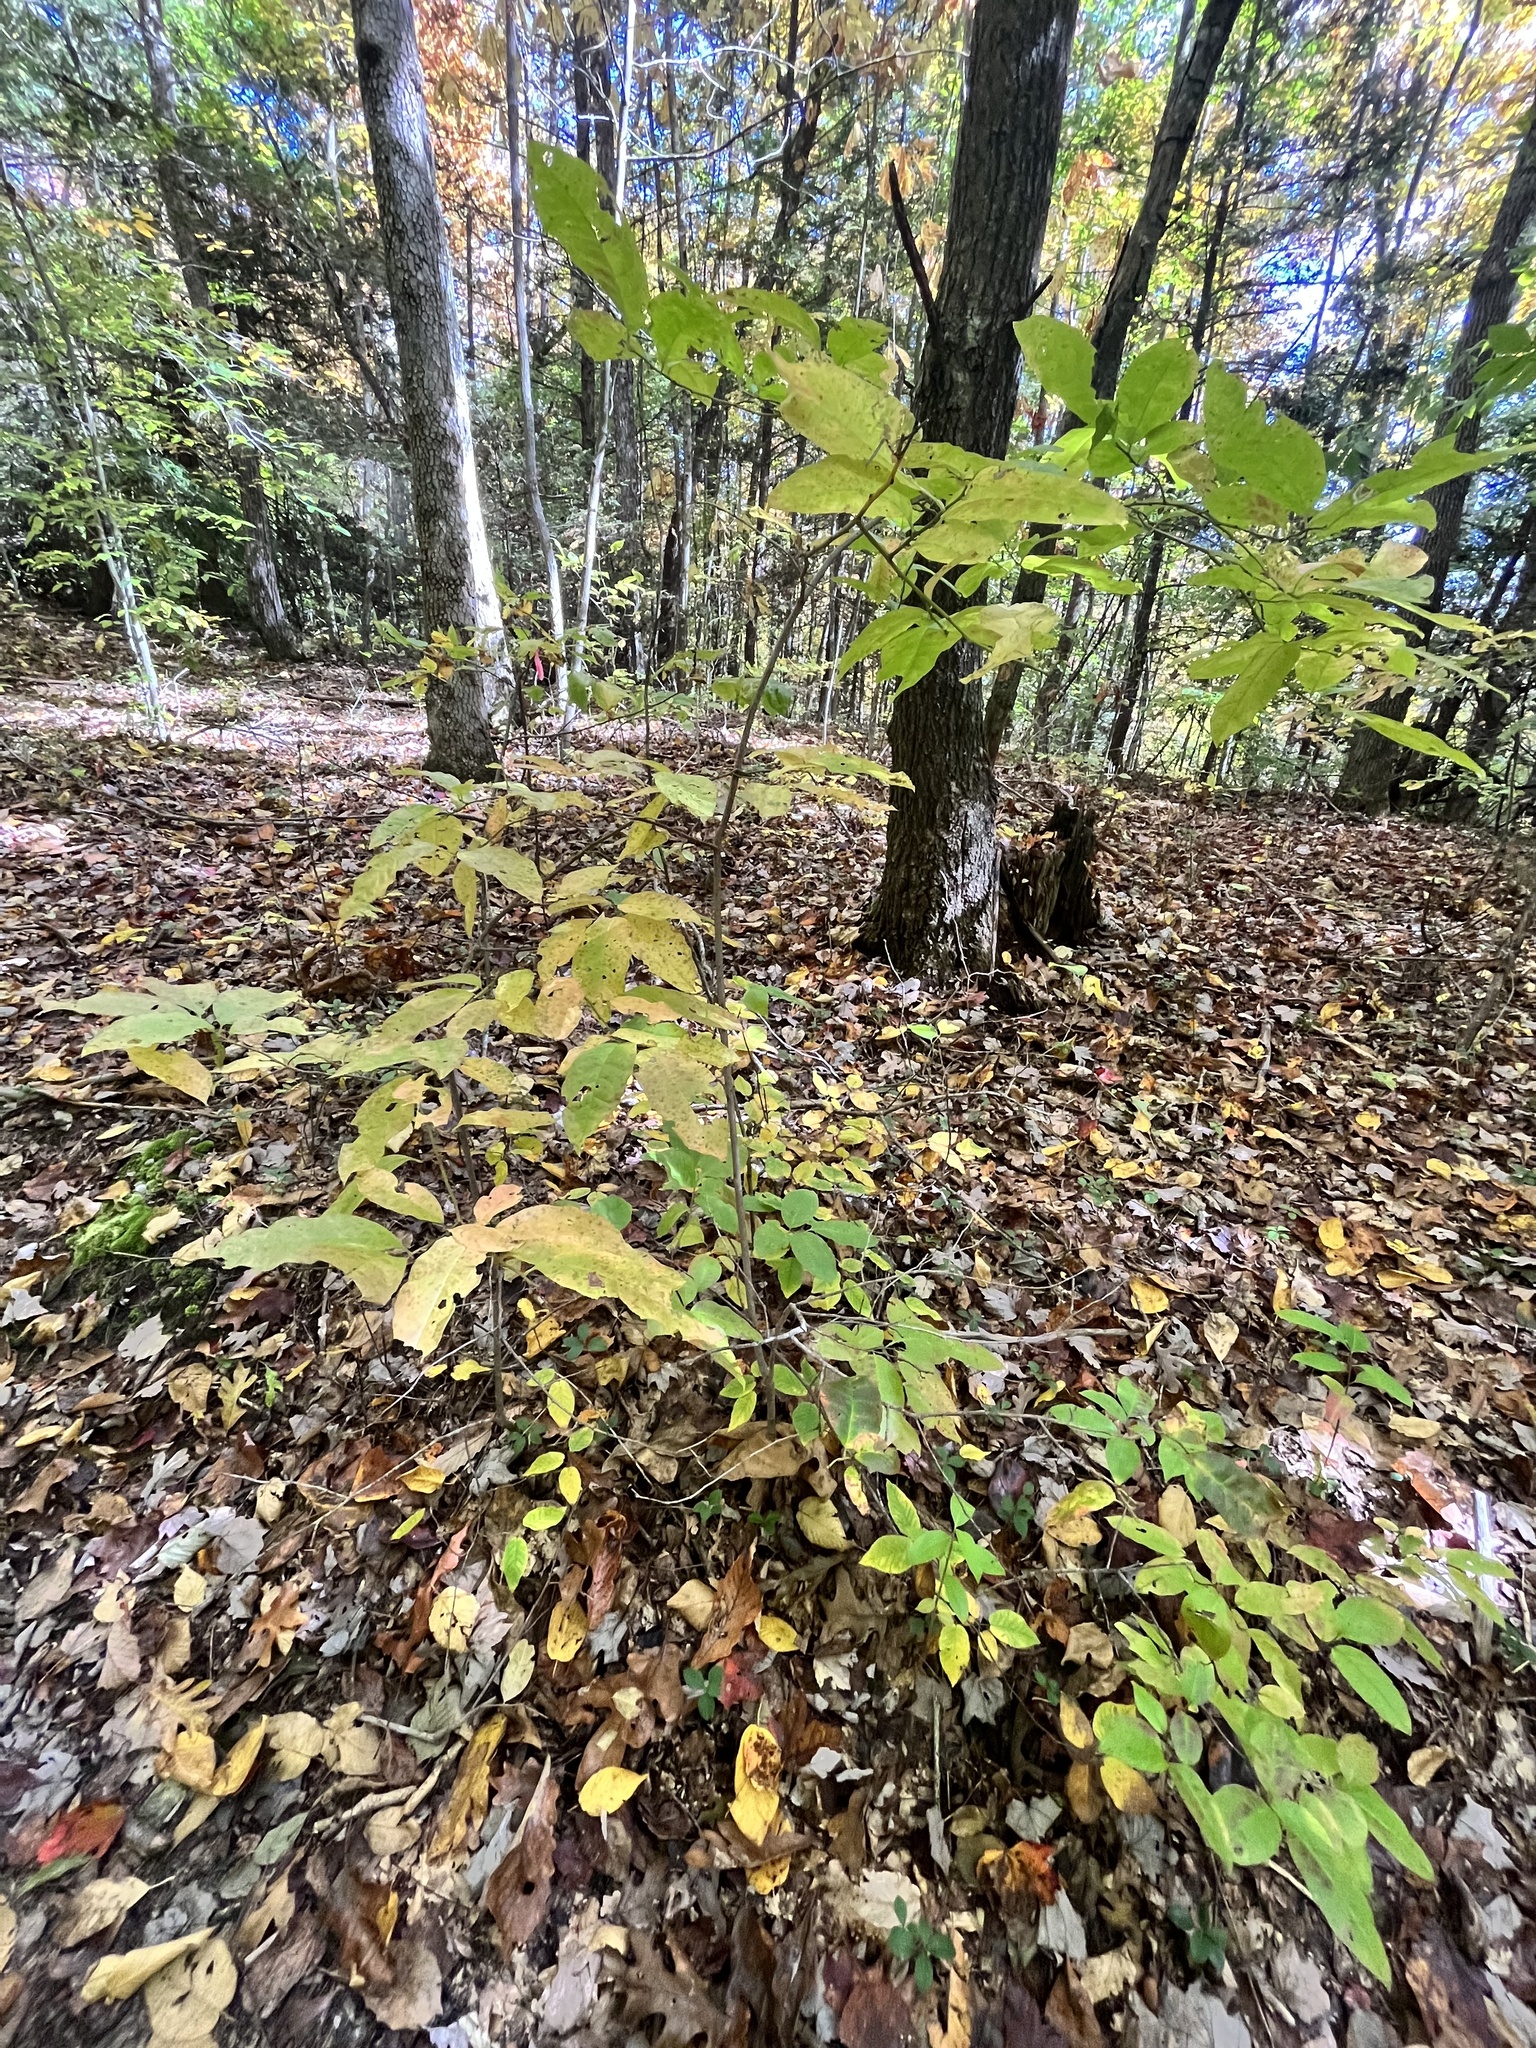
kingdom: Plantae
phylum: Tracheophyta
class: Magnoliopsida
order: Ericales
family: Ericaceae
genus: Oxydendrum
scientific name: Oxydendrum arboreum
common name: Sourwood
